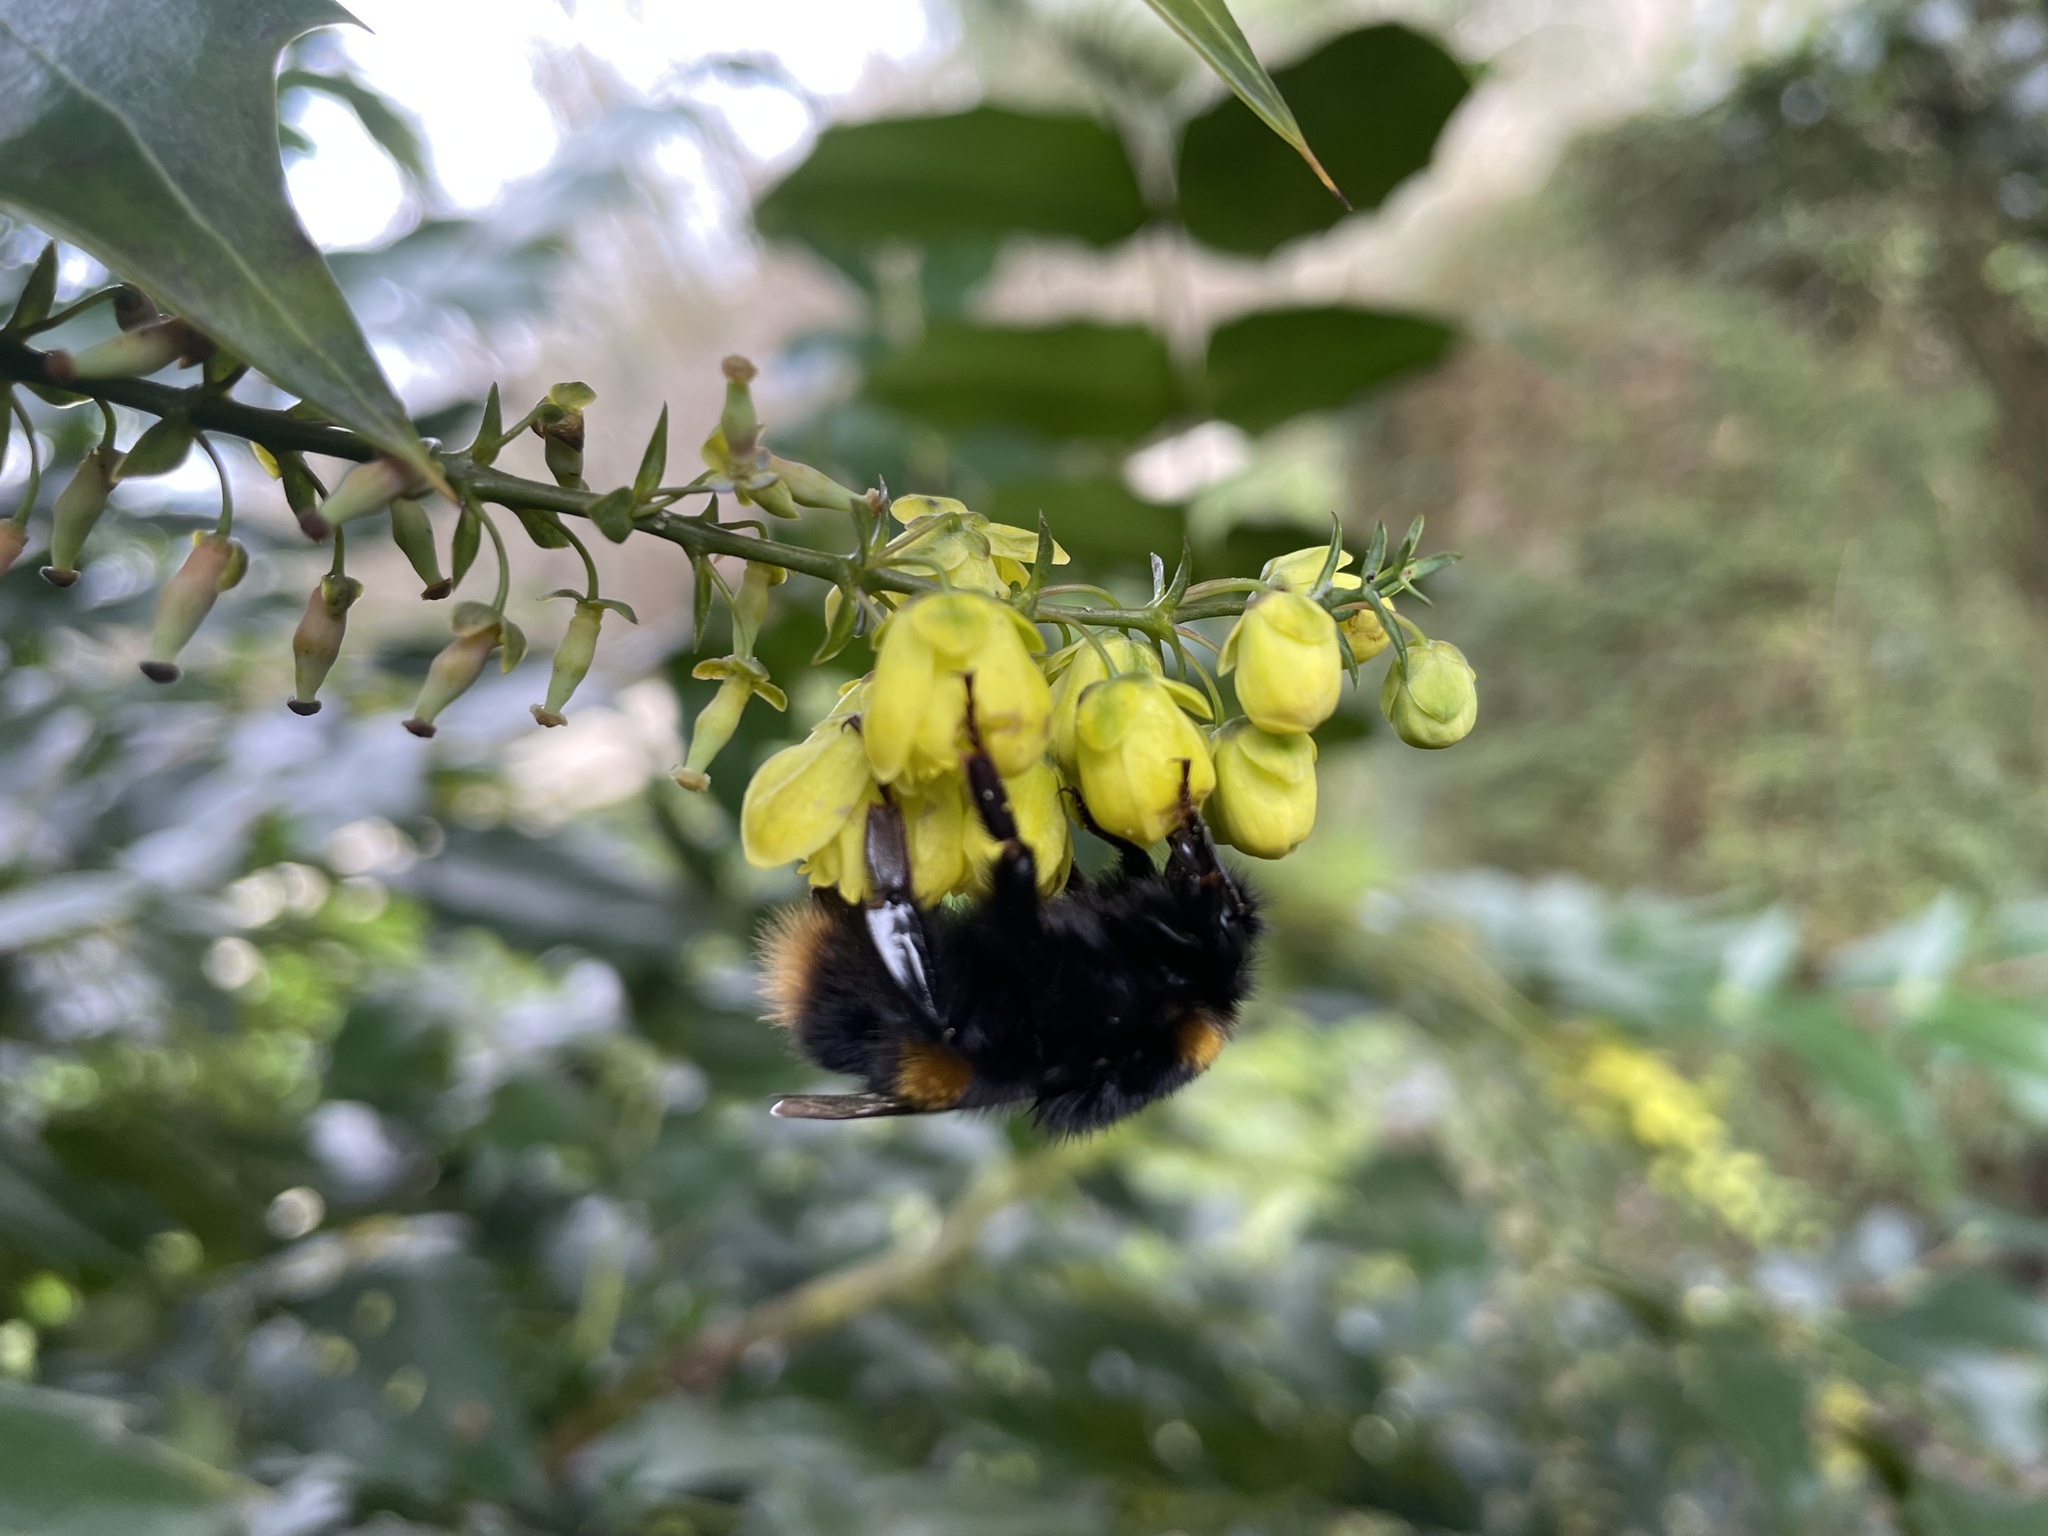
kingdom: Animalia
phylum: Arthropoda
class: Insecta
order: Hymenoptera
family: Apidae
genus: Bombus
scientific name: Bombus terrestris
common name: Buff-tailed bumblebee
